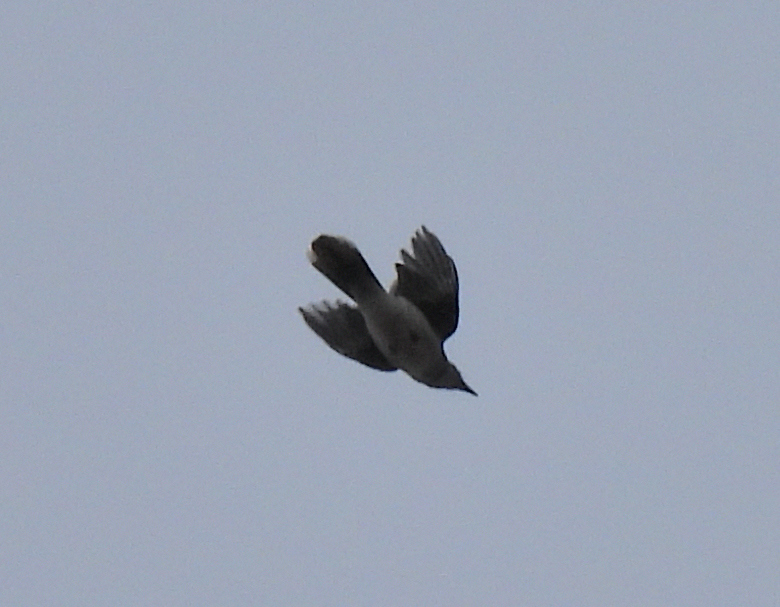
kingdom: Animalia
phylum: Chordata
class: Aves
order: Passeriformes
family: Corvidae
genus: Cyanocitta
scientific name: Cyanocitta cristata
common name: Blue jay
